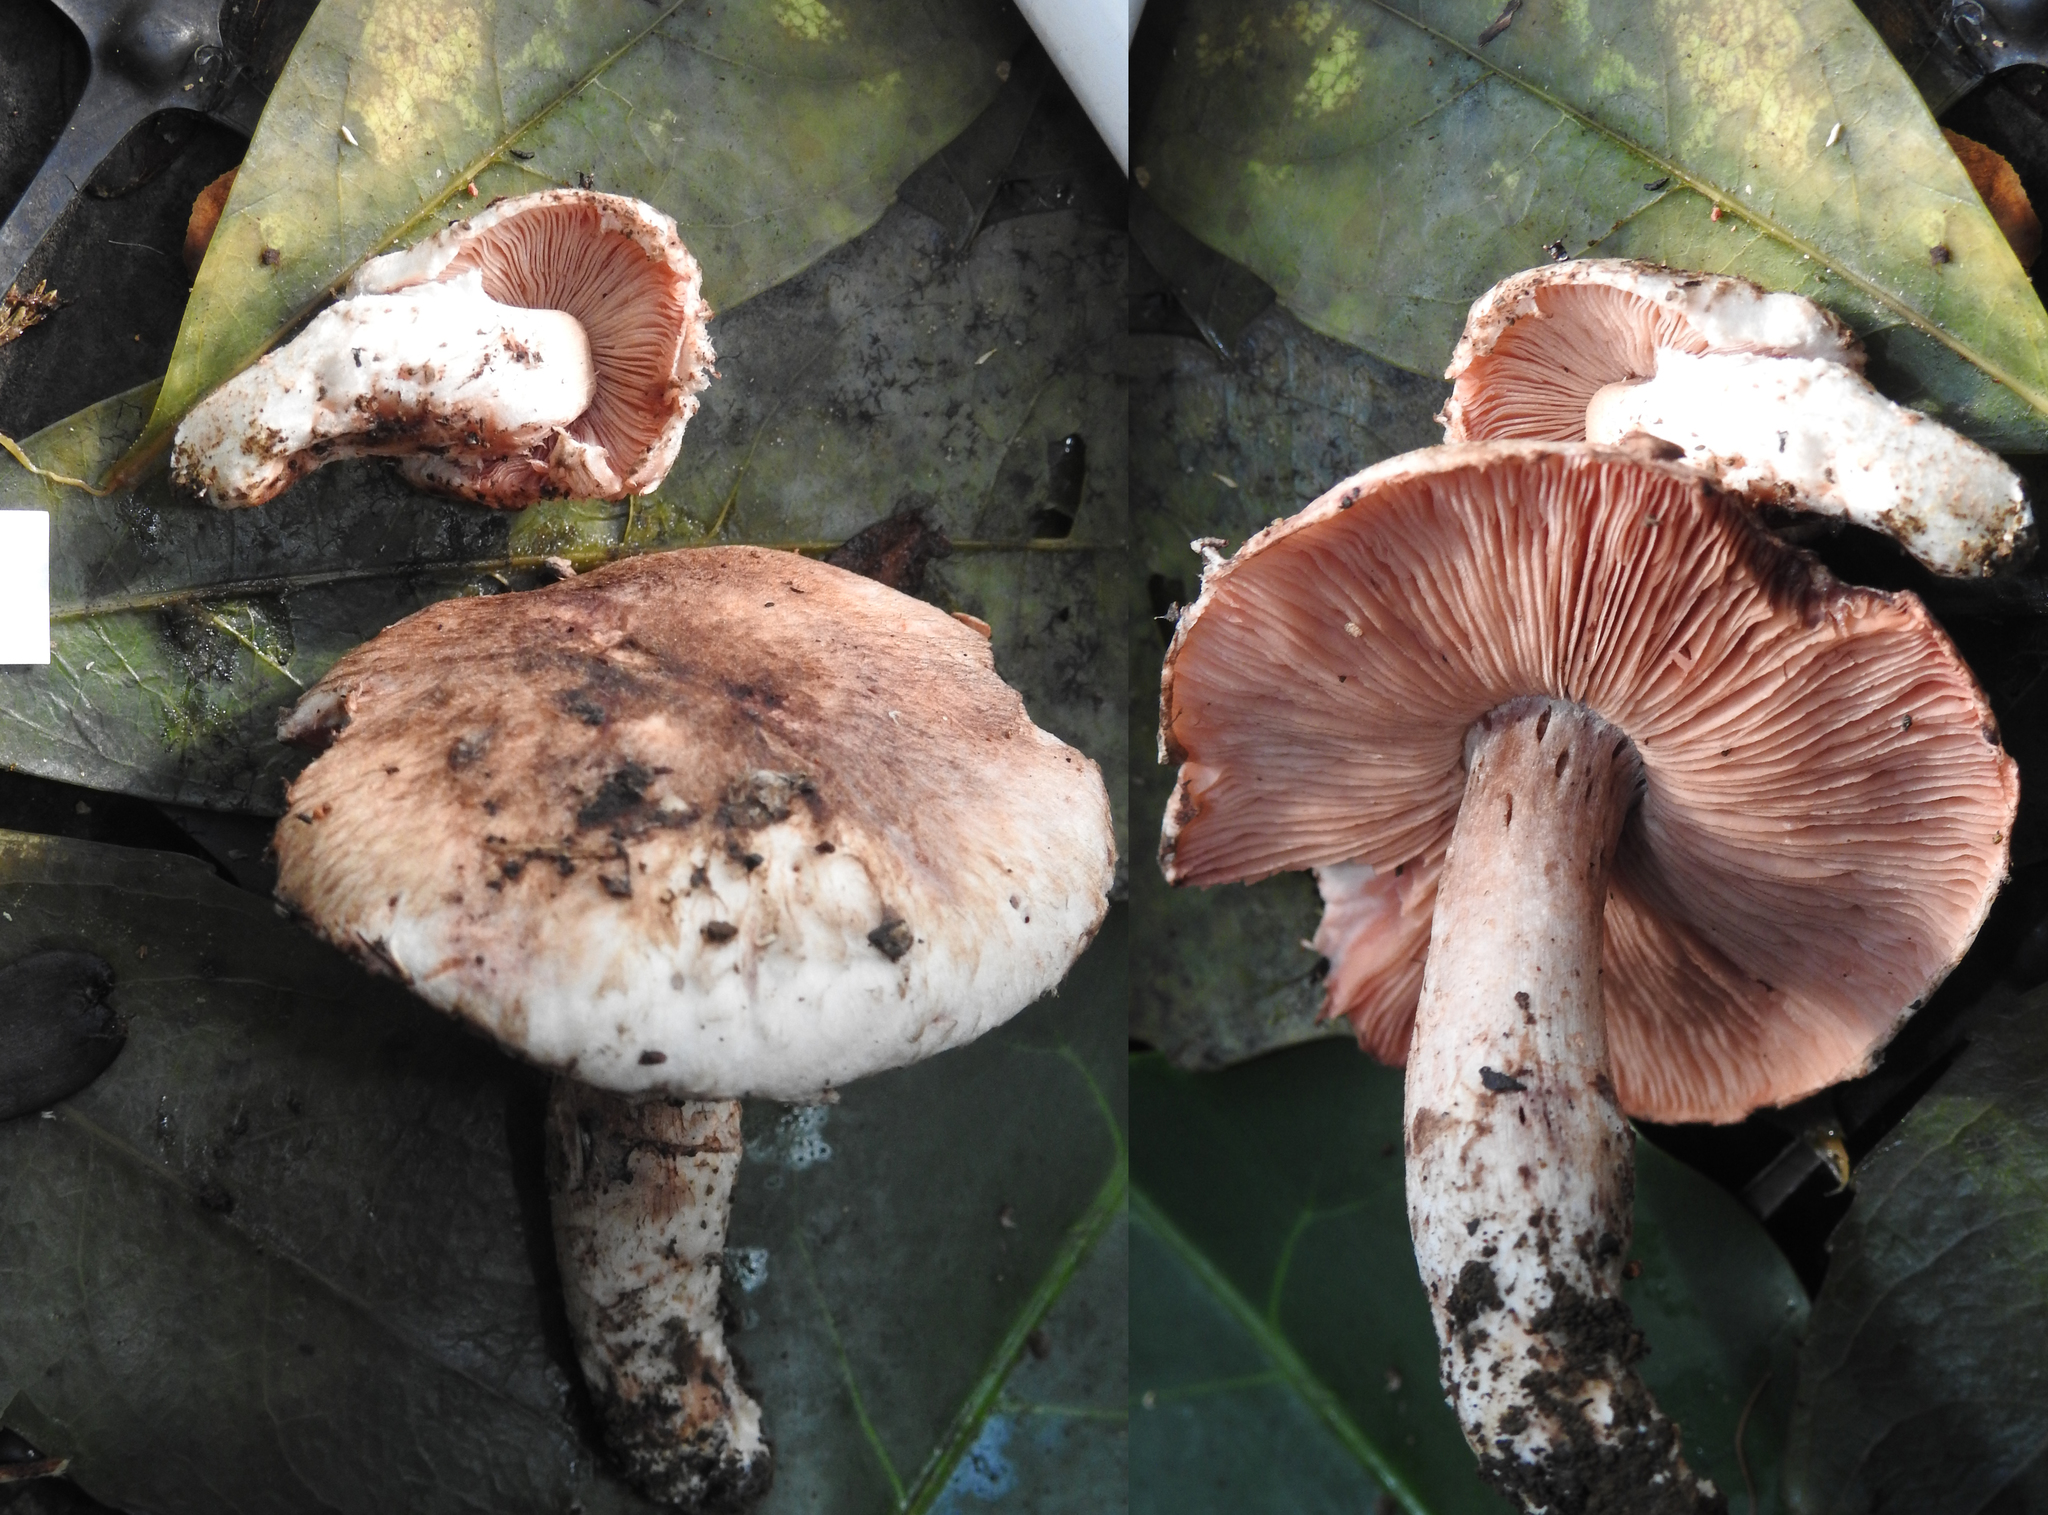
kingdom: Fungi
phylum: Basidiomycota
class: Agaricomycetes
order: Agaricales
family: Agaricaceae
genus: Agaricus
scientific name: Agaricus dolichopus
